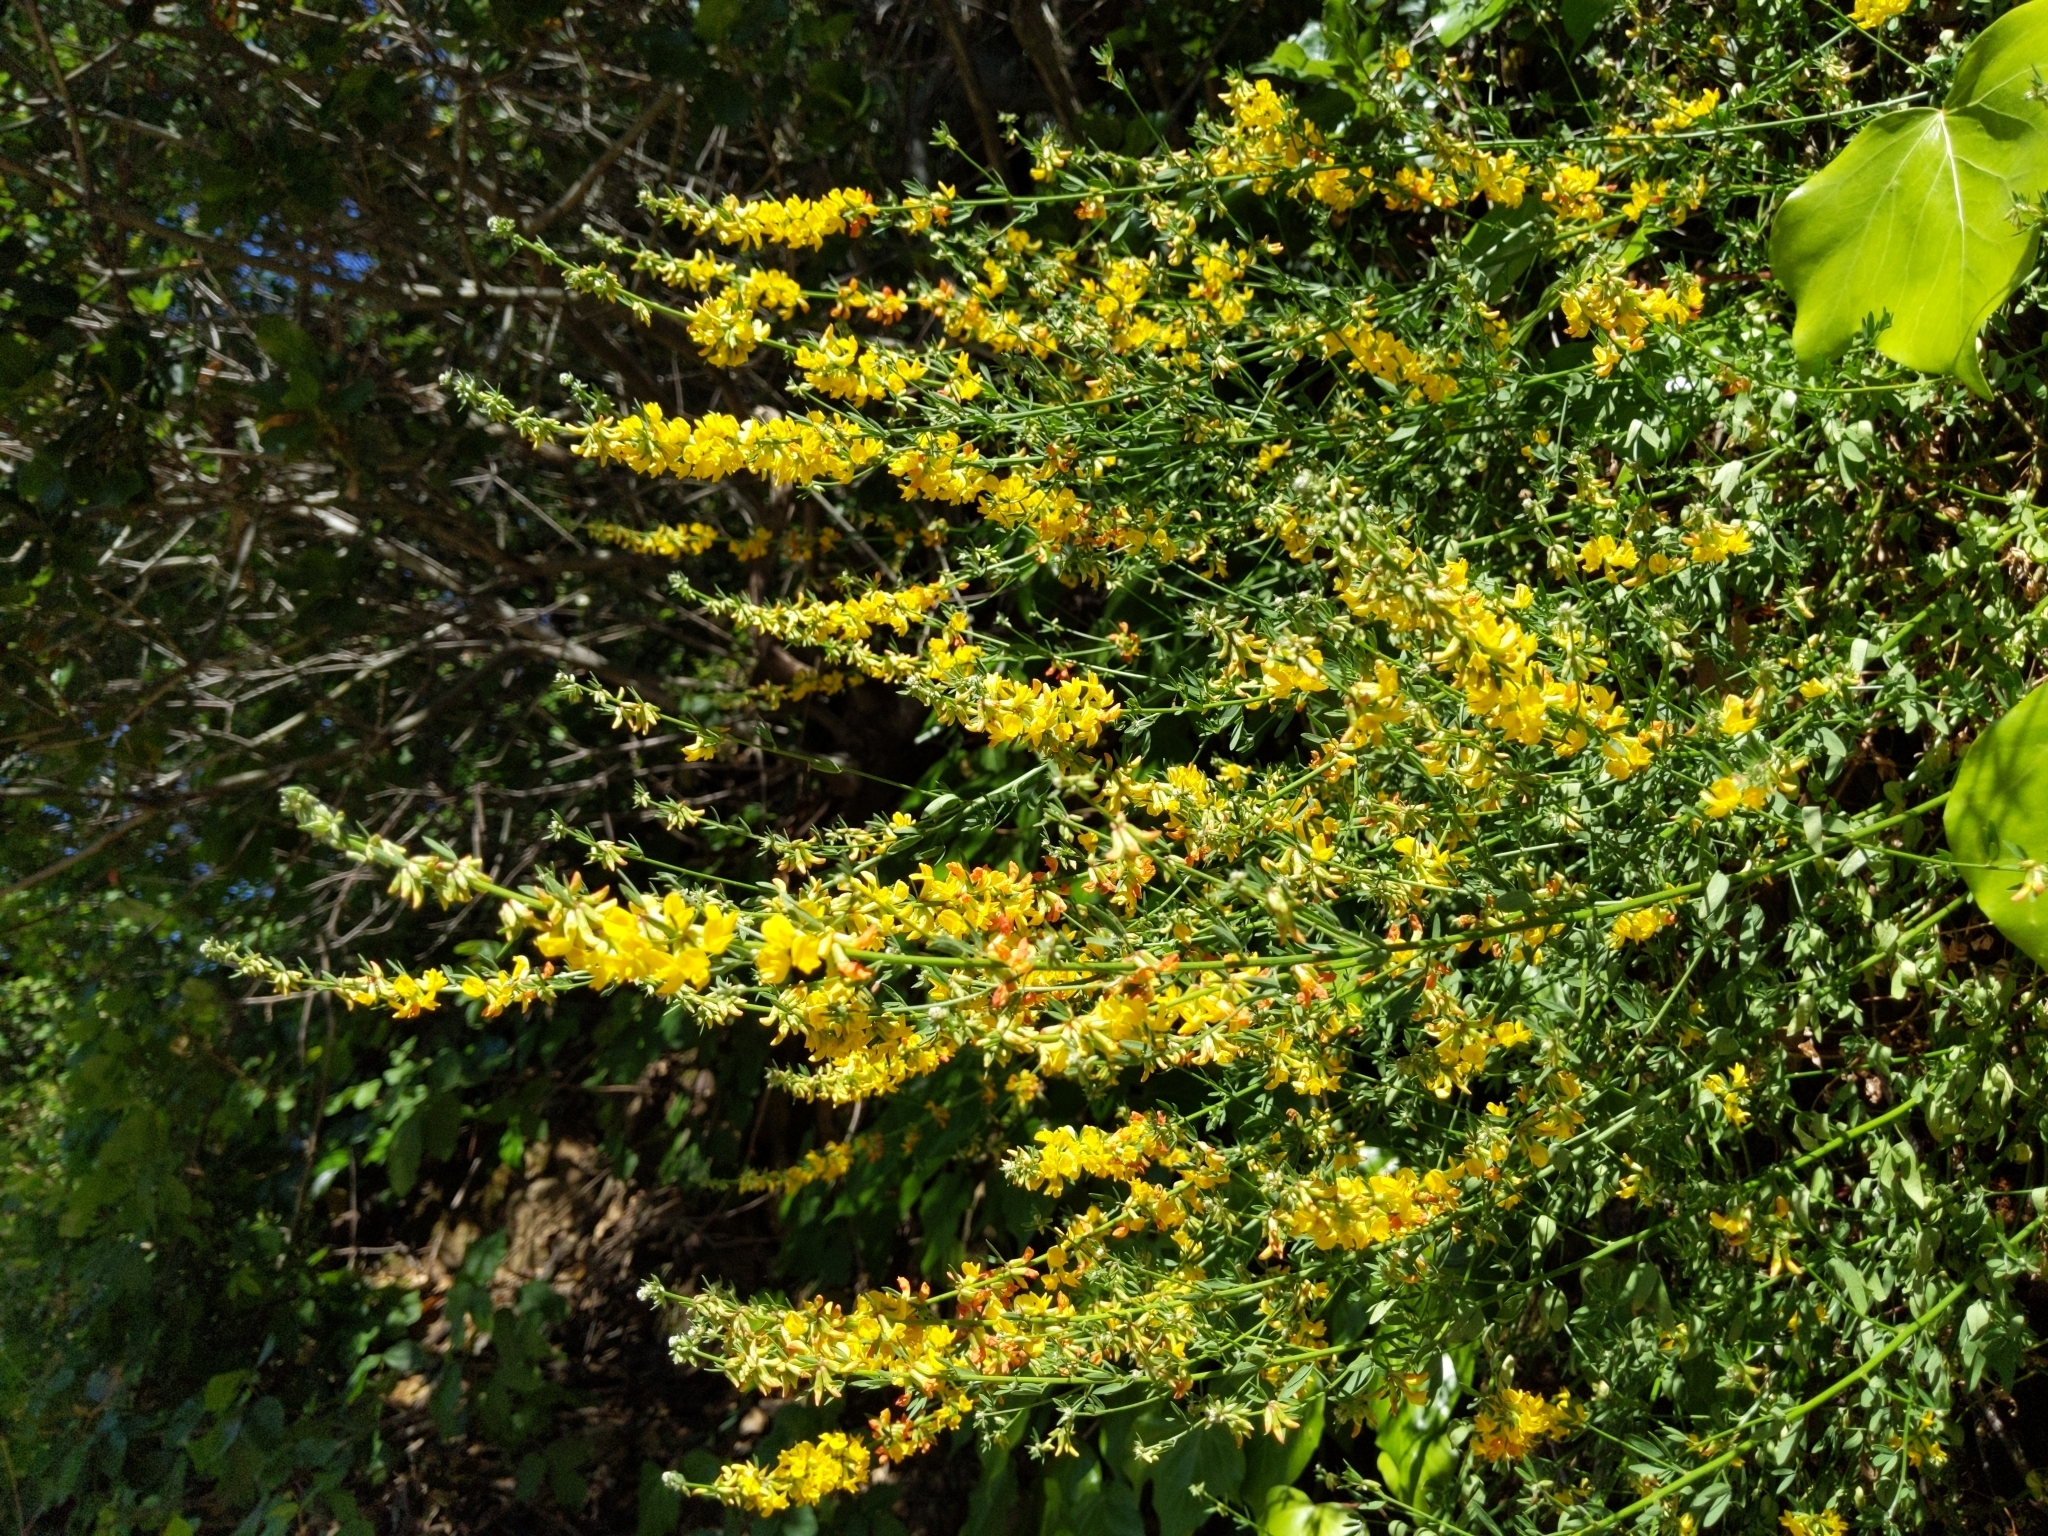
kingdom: Plantae
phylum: Tracheophyta
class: Magnoliopsida
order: Fabales
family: Fabaceae
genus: Acmispon
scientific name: Acmispon glaber
